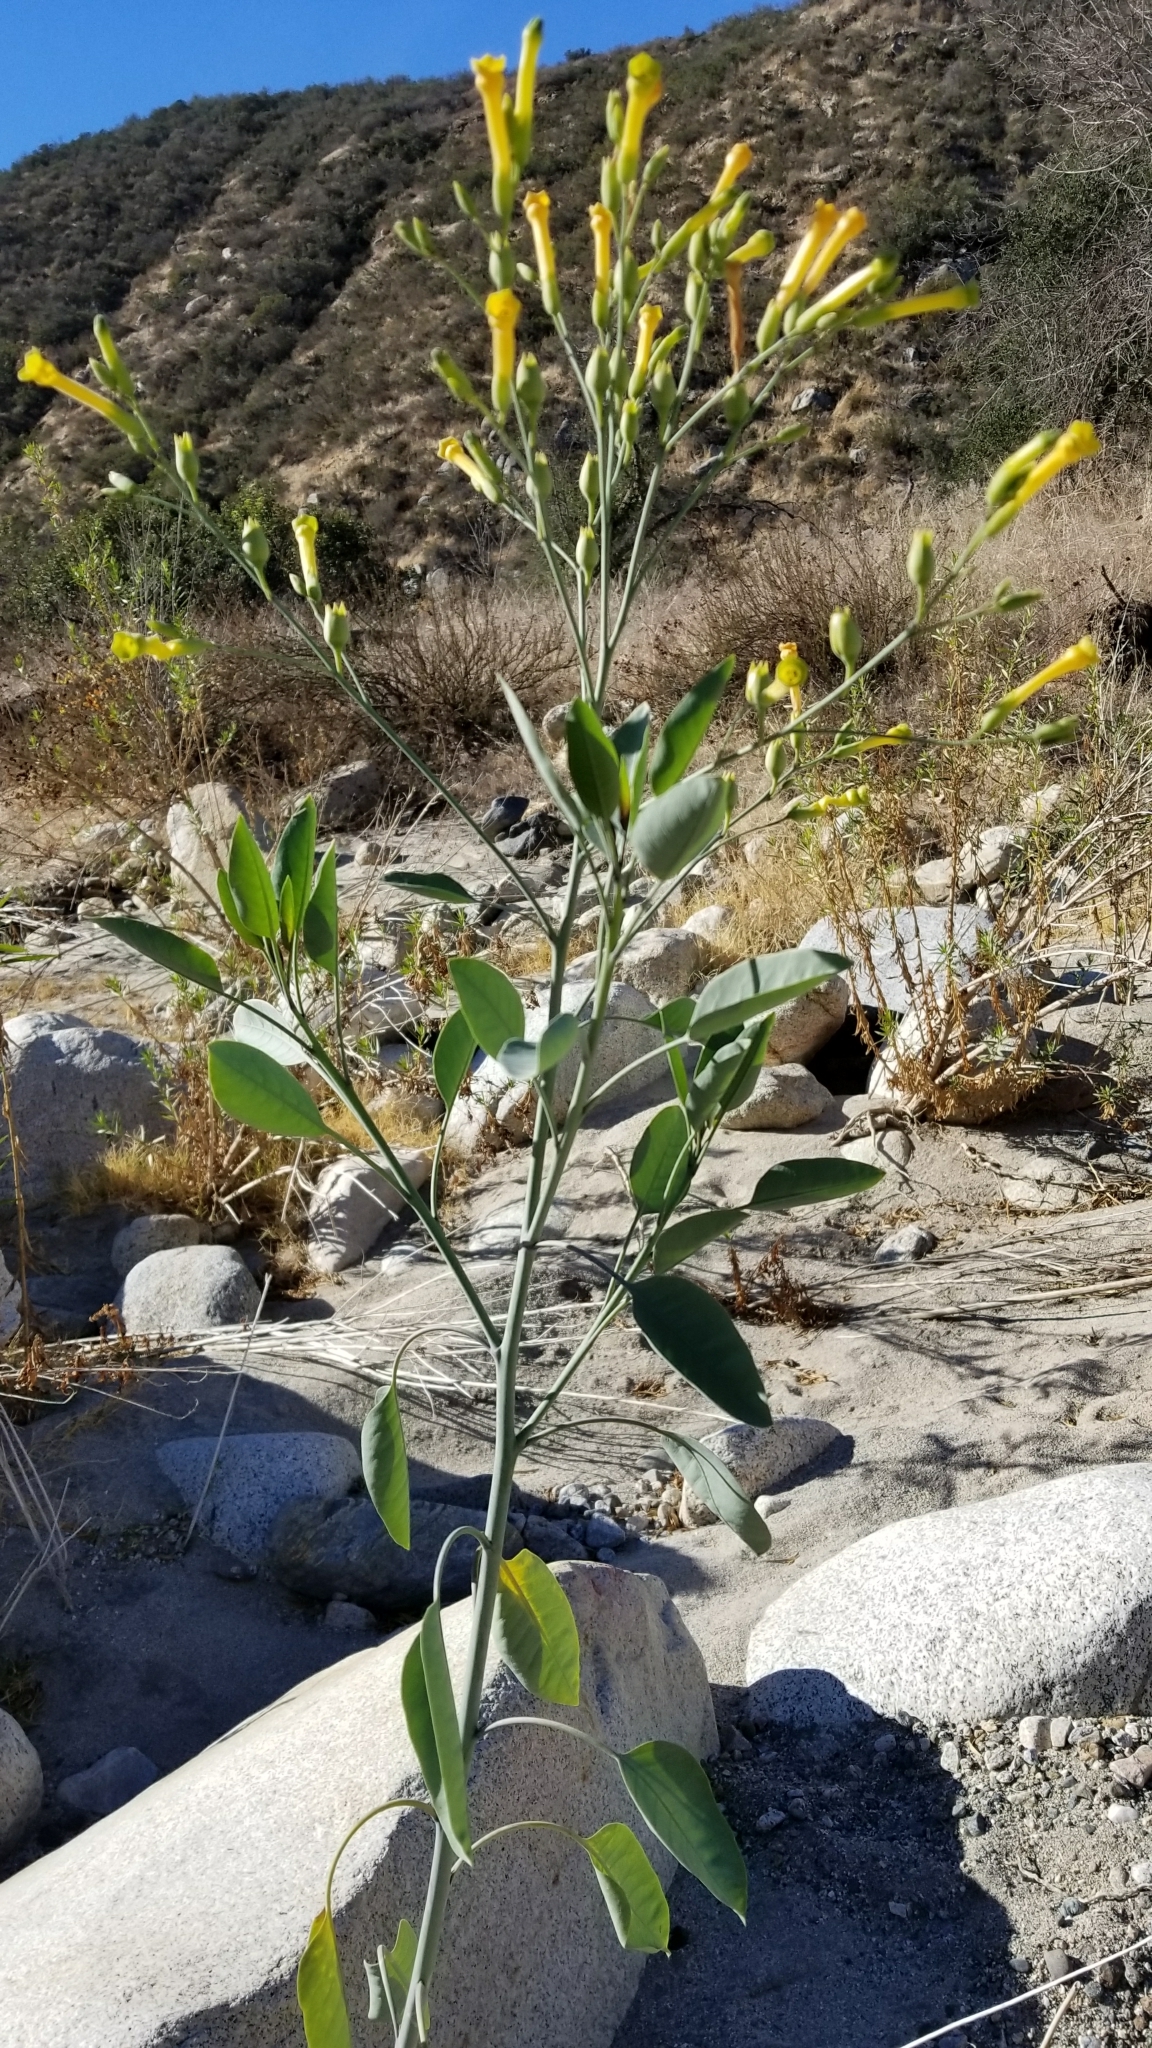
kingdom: Plantae
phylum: Tracheophyta
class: Magnoliopsida
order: Solanales
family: Solanaceae
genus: Nicotiana
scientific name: Nicotiana glauca
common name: Tree tobacco
